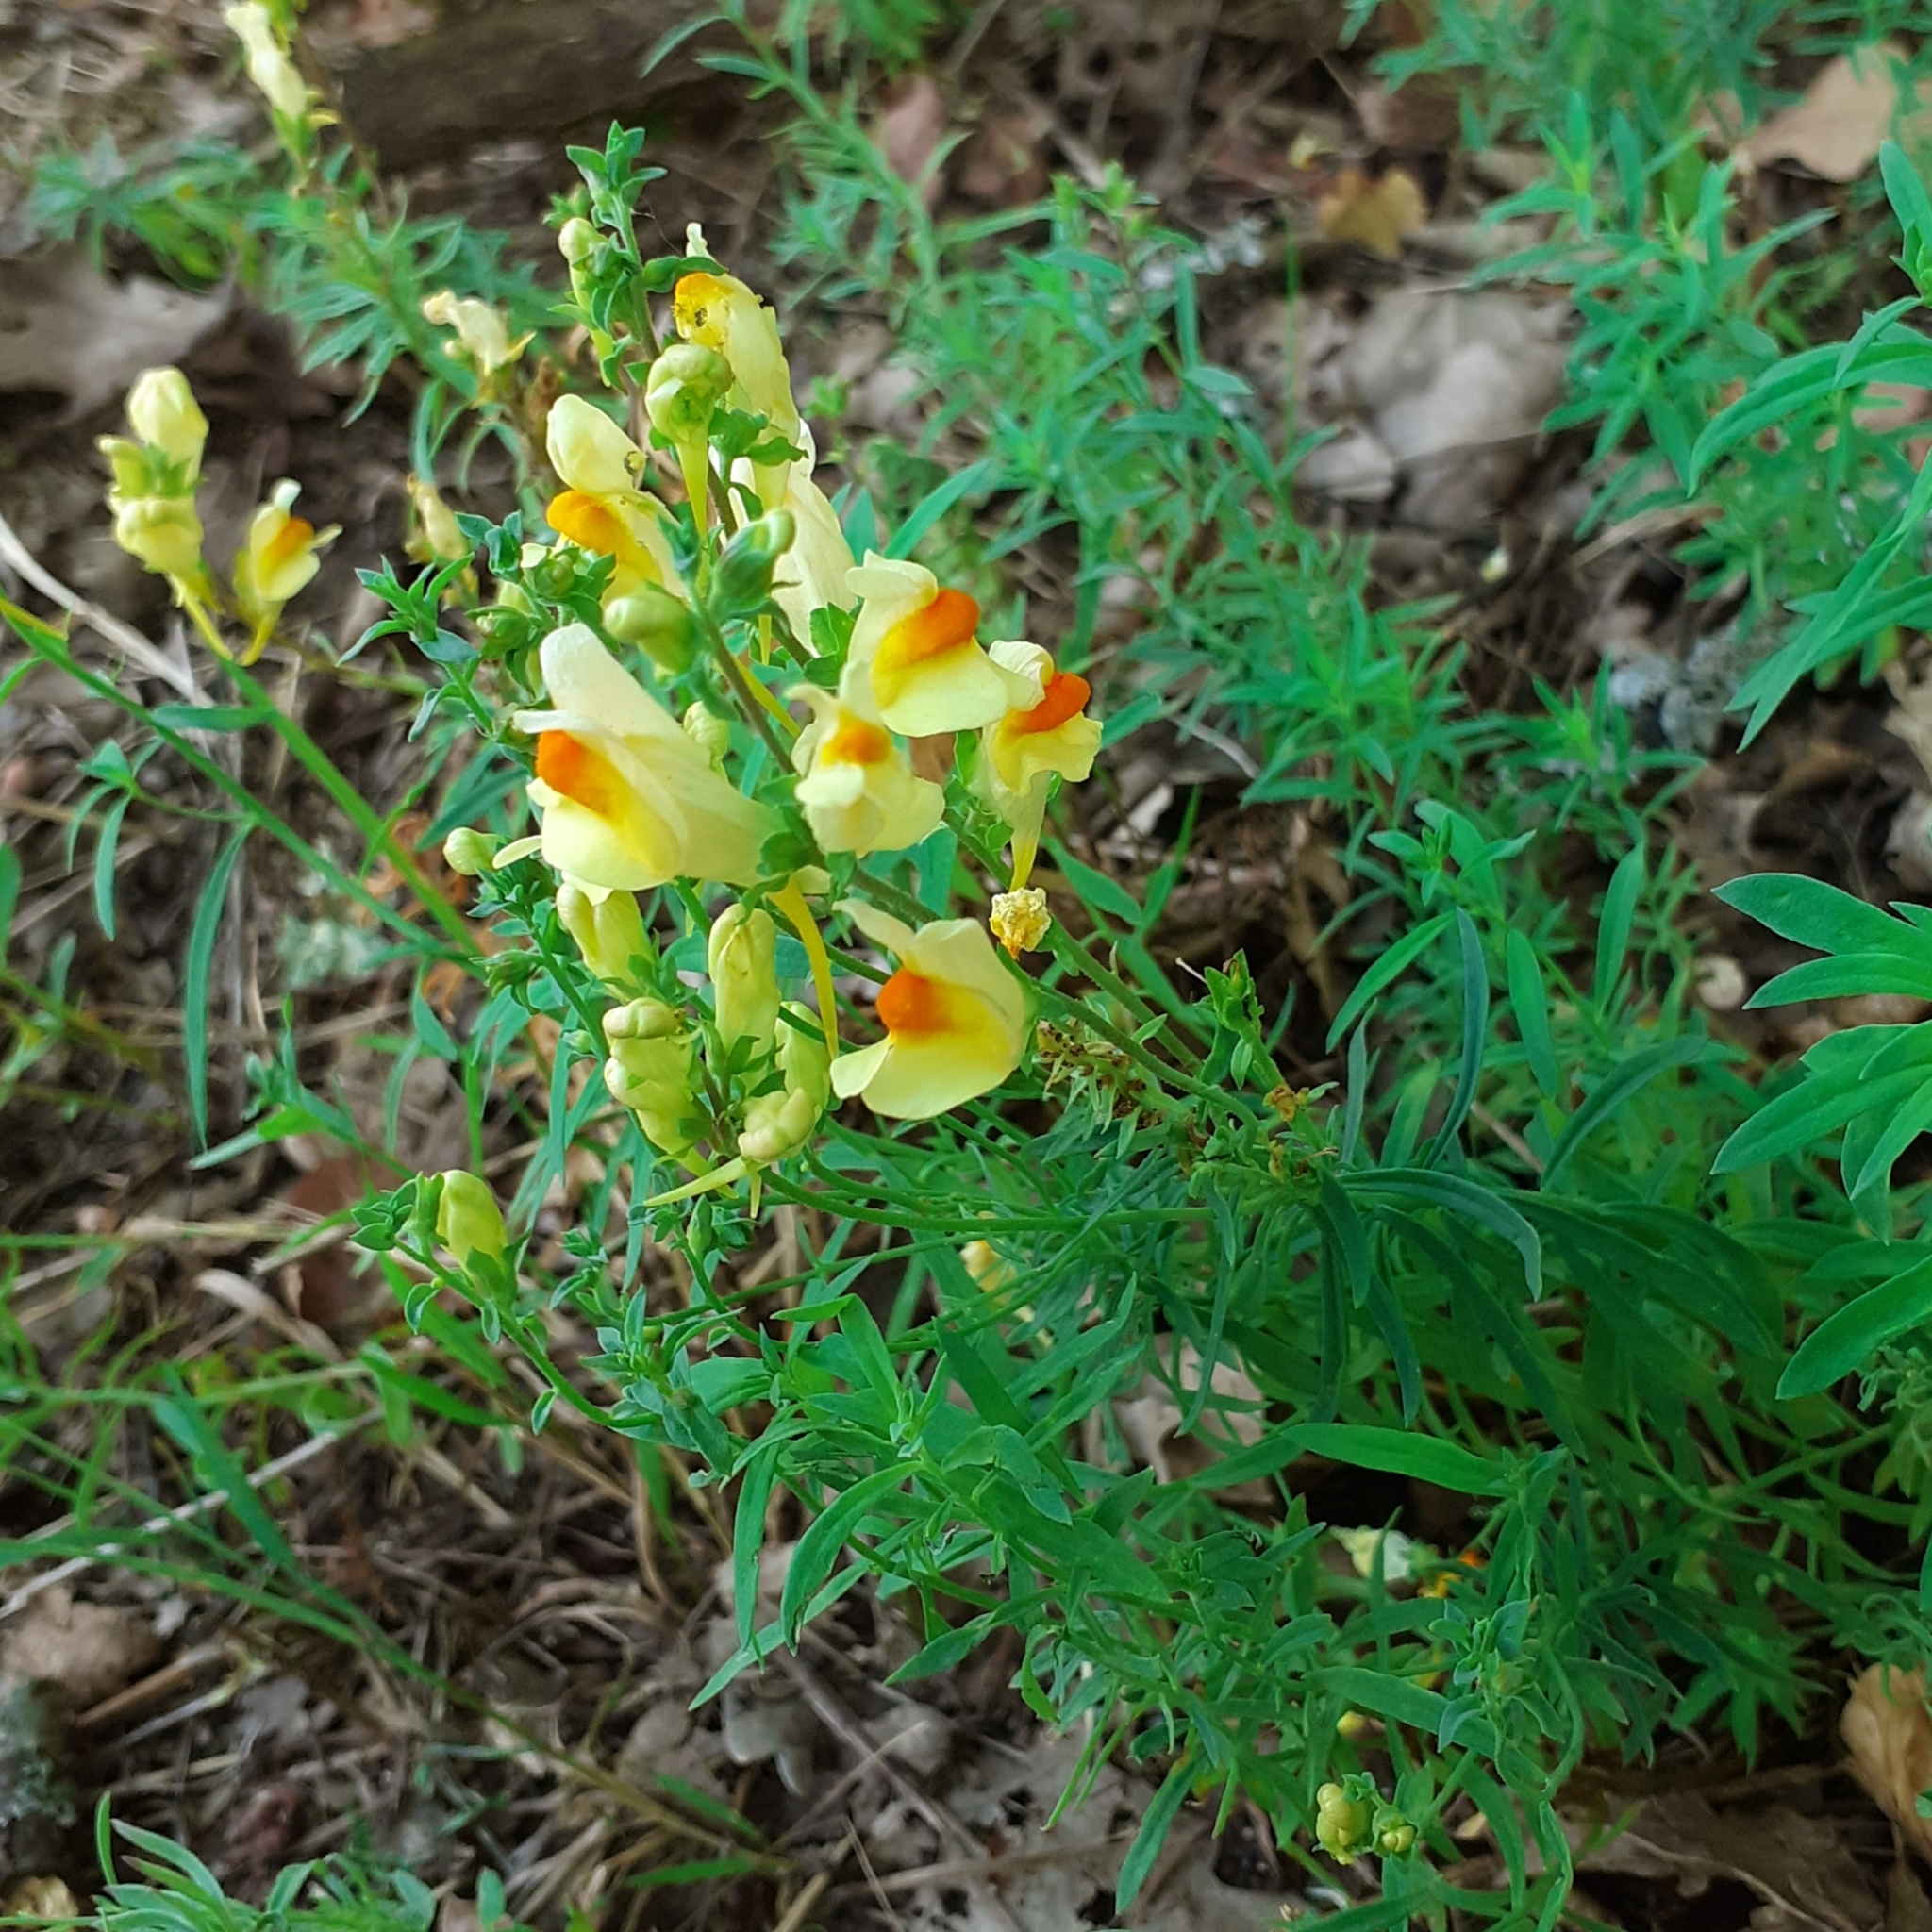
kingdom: Plantae
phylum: Tracheophyta
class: Magnoliopsida
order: Lamiales
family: Plantaginaceae
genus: Linaria
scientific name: Linaria vulgaris
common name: Butter and eggs
